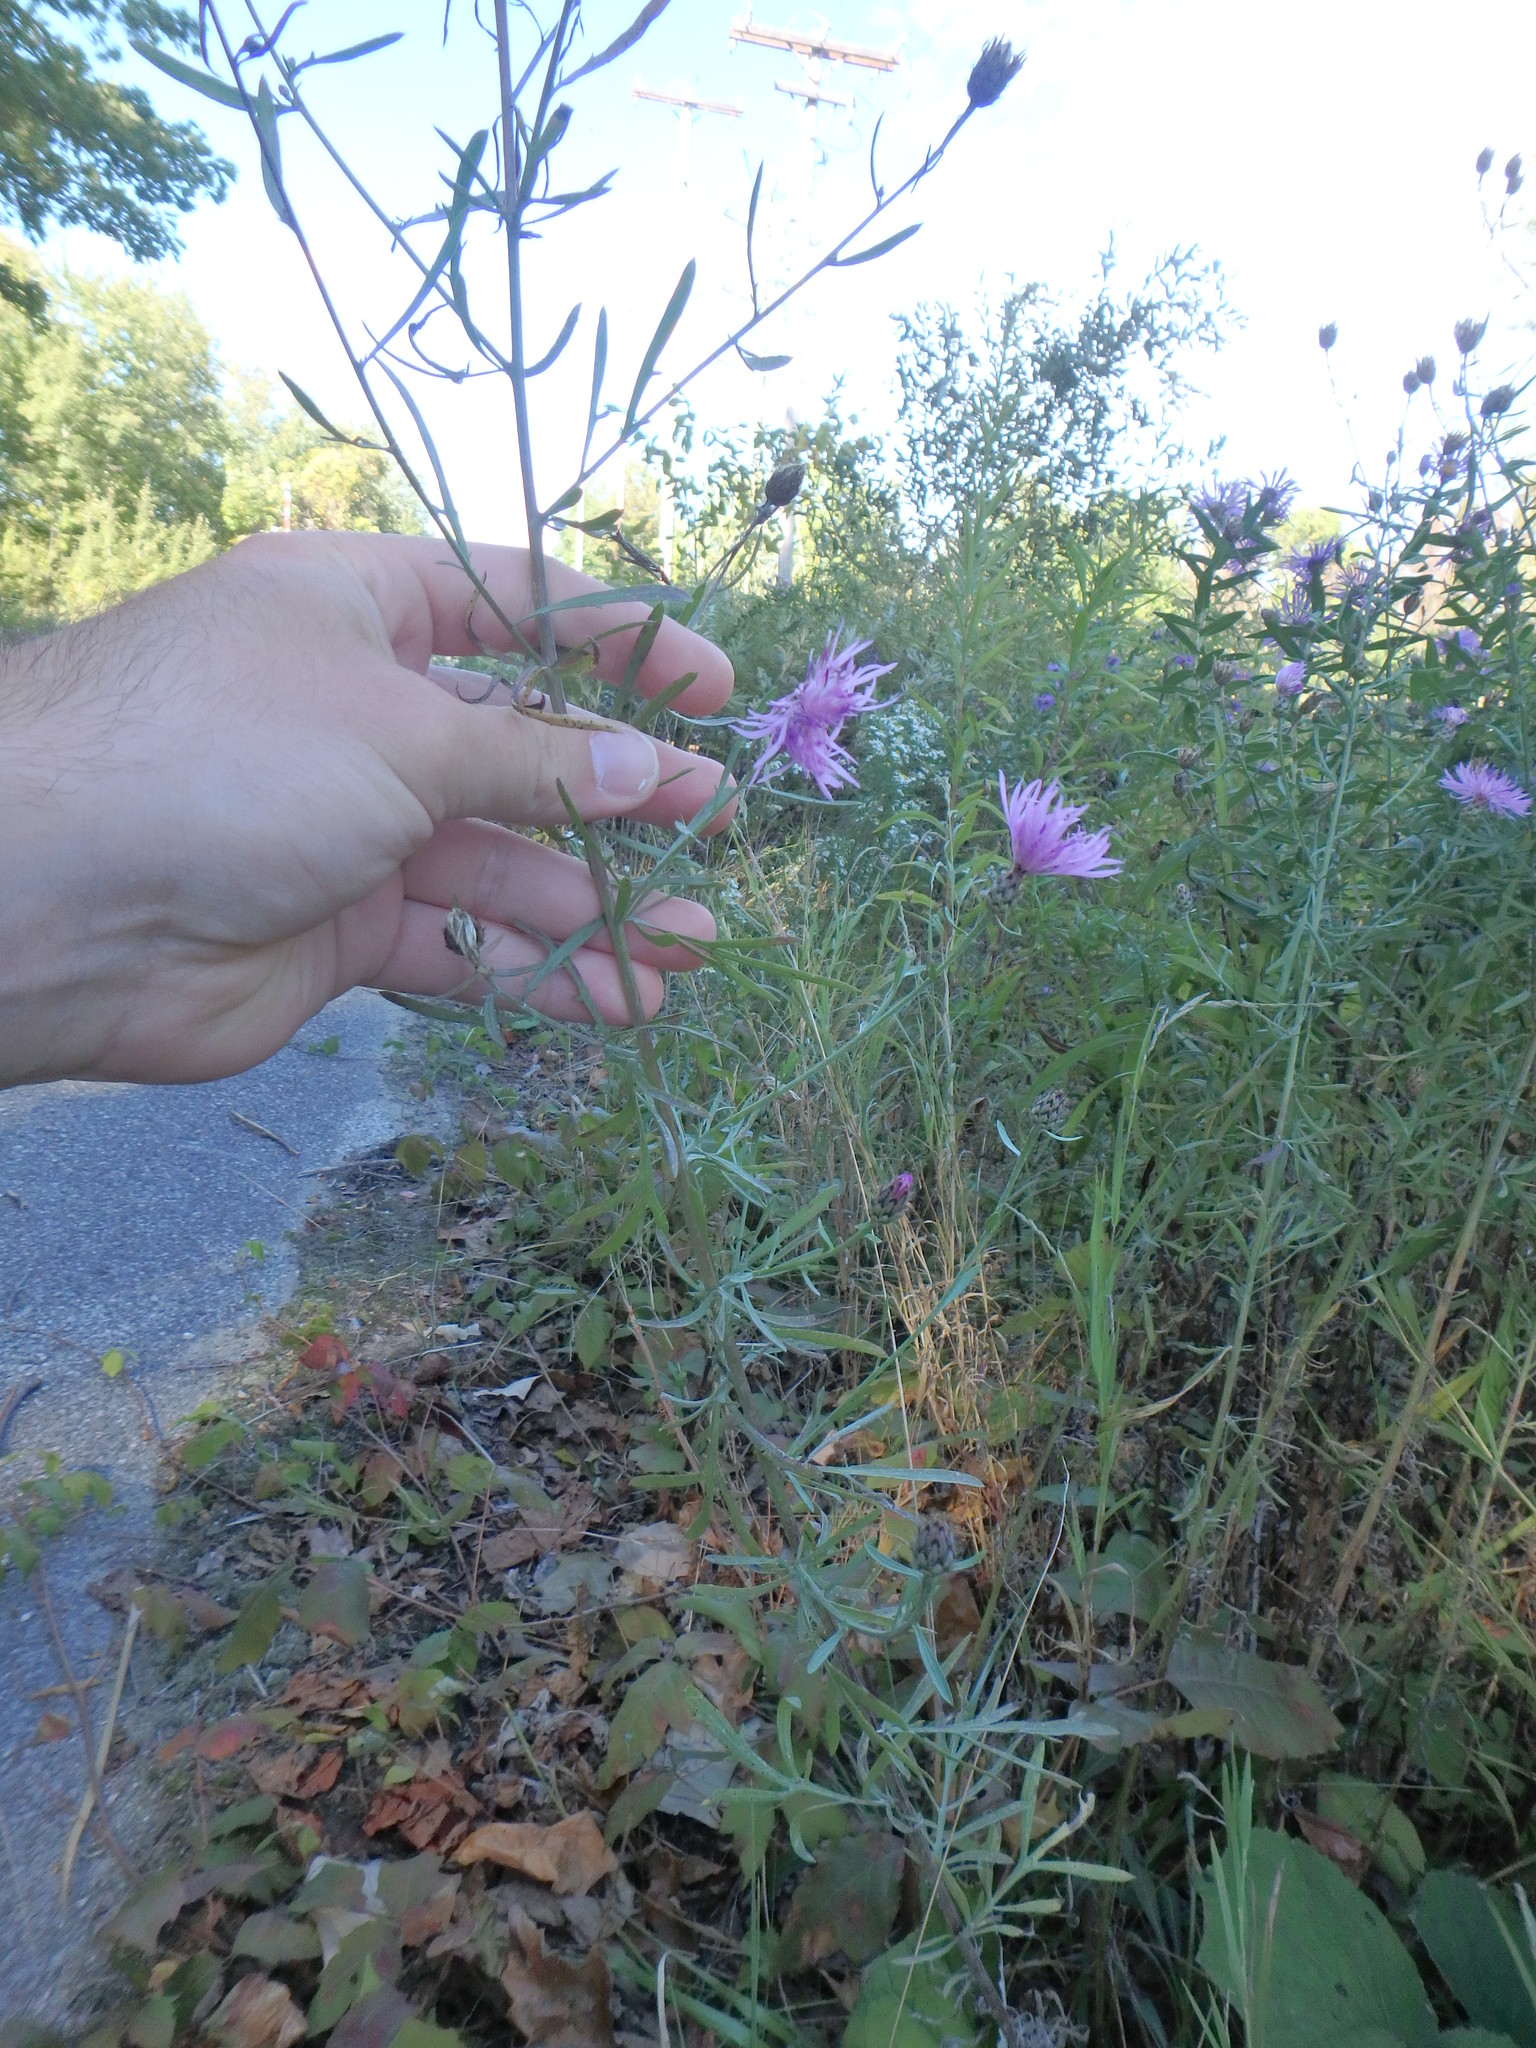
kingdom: Plantae
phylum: Tracheophyta
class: Magnoliopsida
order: Asterales
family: Asteraceae
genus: Centaurea
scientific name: Centaurea stoebe
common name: Spotted knapweed
